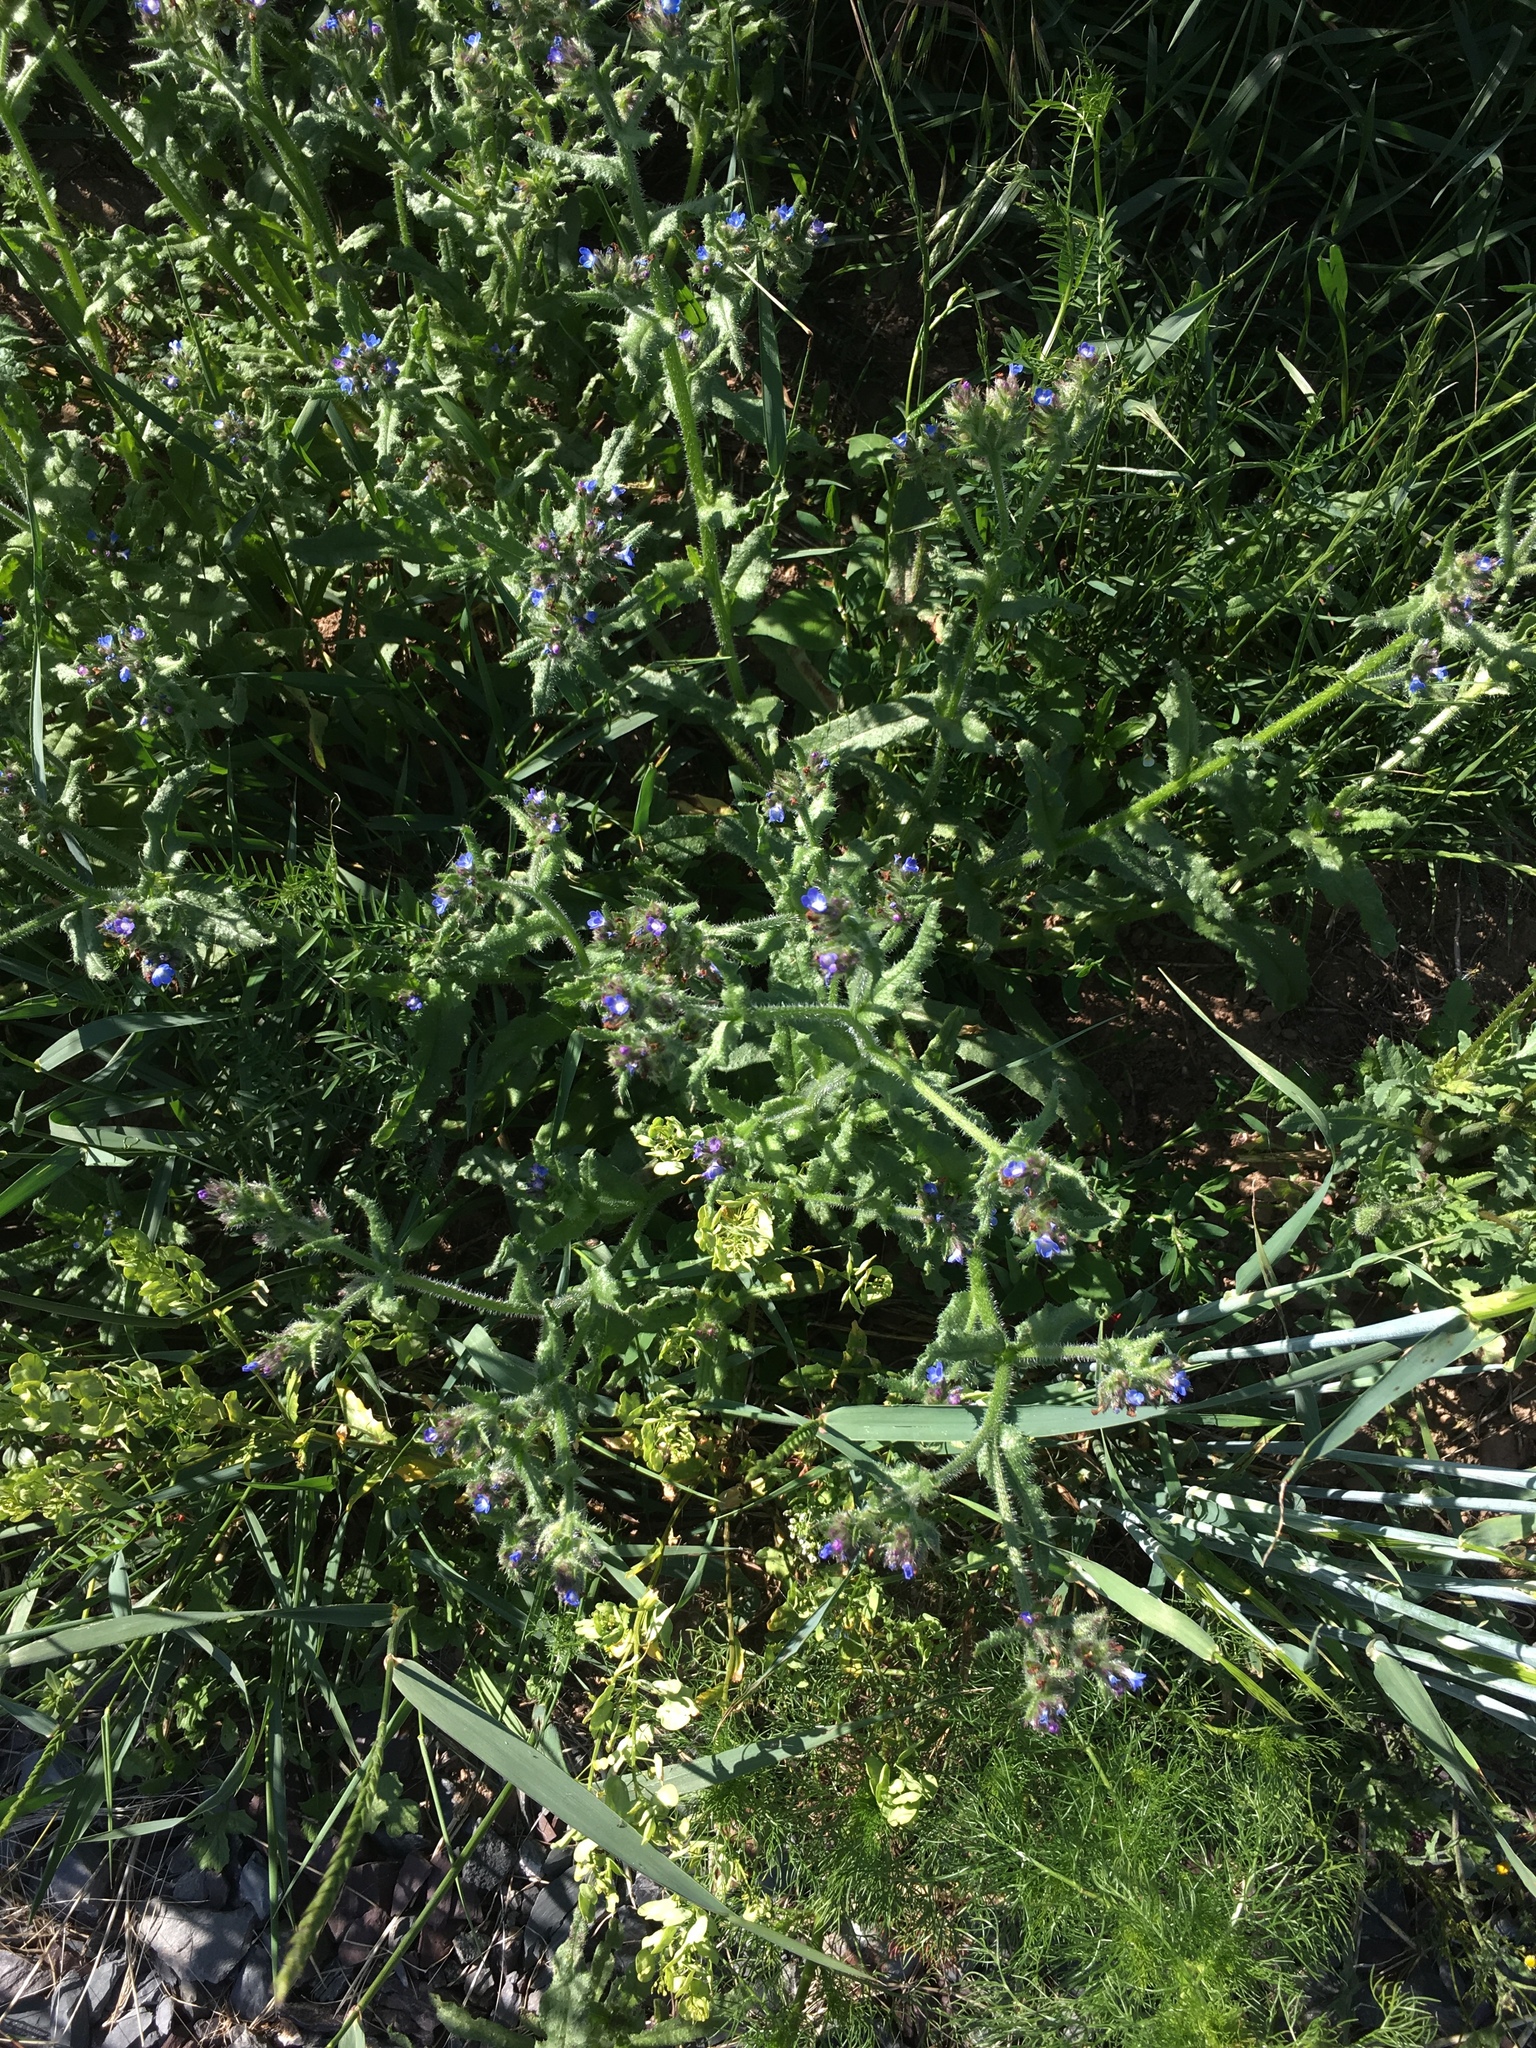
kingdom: Plantae
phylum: Tracheophyta
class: Magnoliopsida
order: Boraginales
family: Boraginaceae
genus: Lycopsis
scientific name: Lycopsis arvensis
